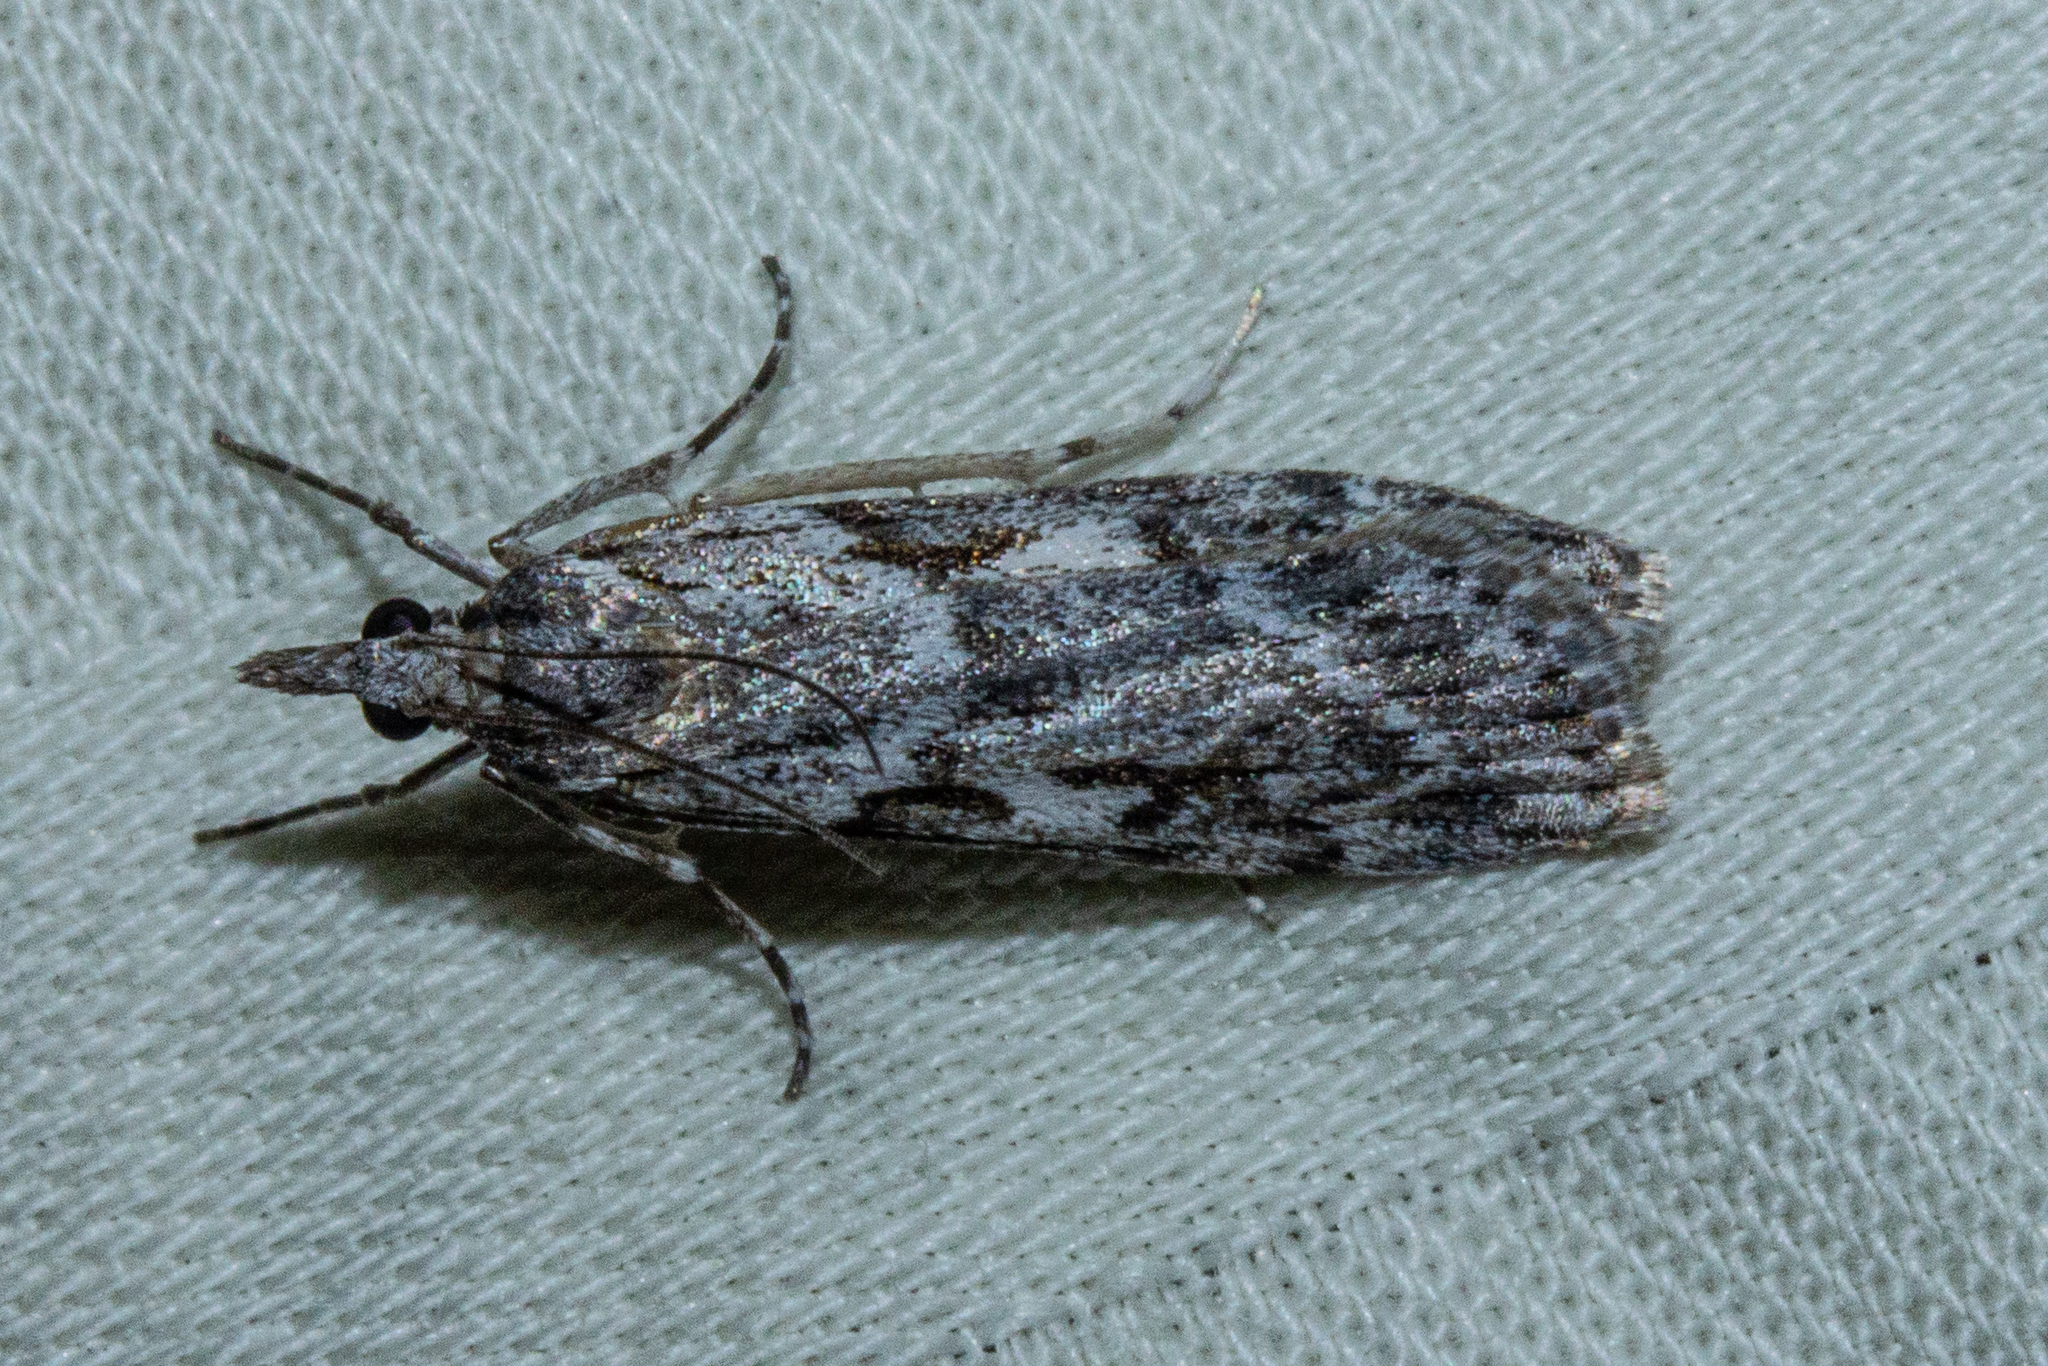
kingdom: Animalia
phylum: Arthropoda
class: Insecta
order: Lepidoptera
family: Crambidae
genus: Scoparia
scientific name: Scoparia halopis
